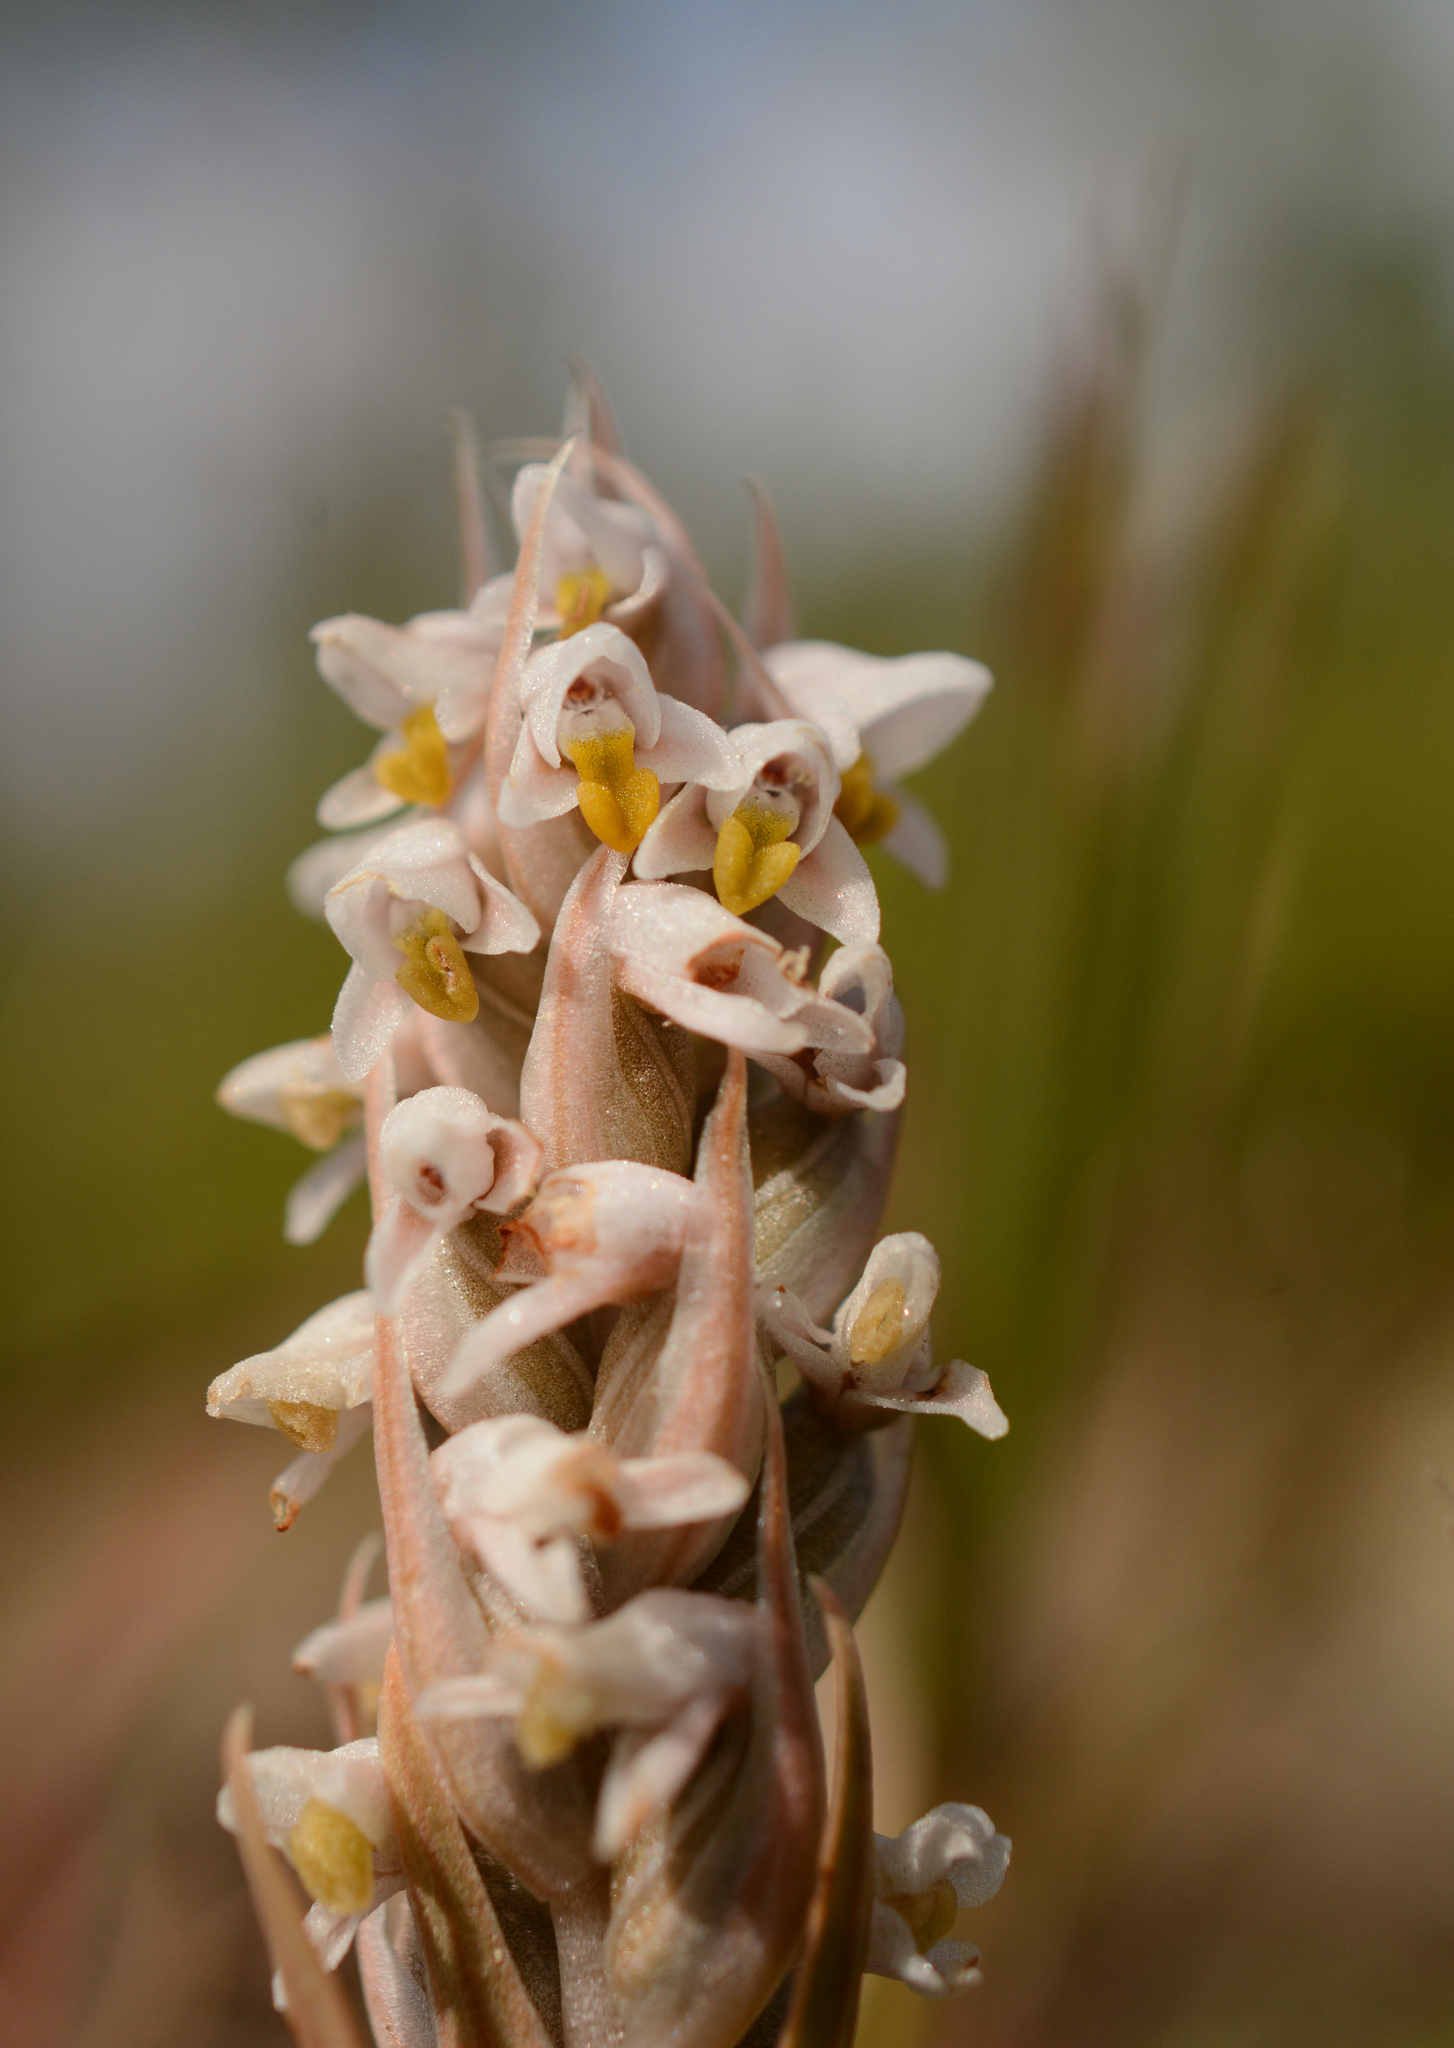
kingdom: Plantae
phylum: Tracheophyta
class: Liliopsida
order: Asparagales
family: Orchidaceae
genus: Zeuxine
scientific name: Zeuxine strateumatica
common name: Soldier's orchid
